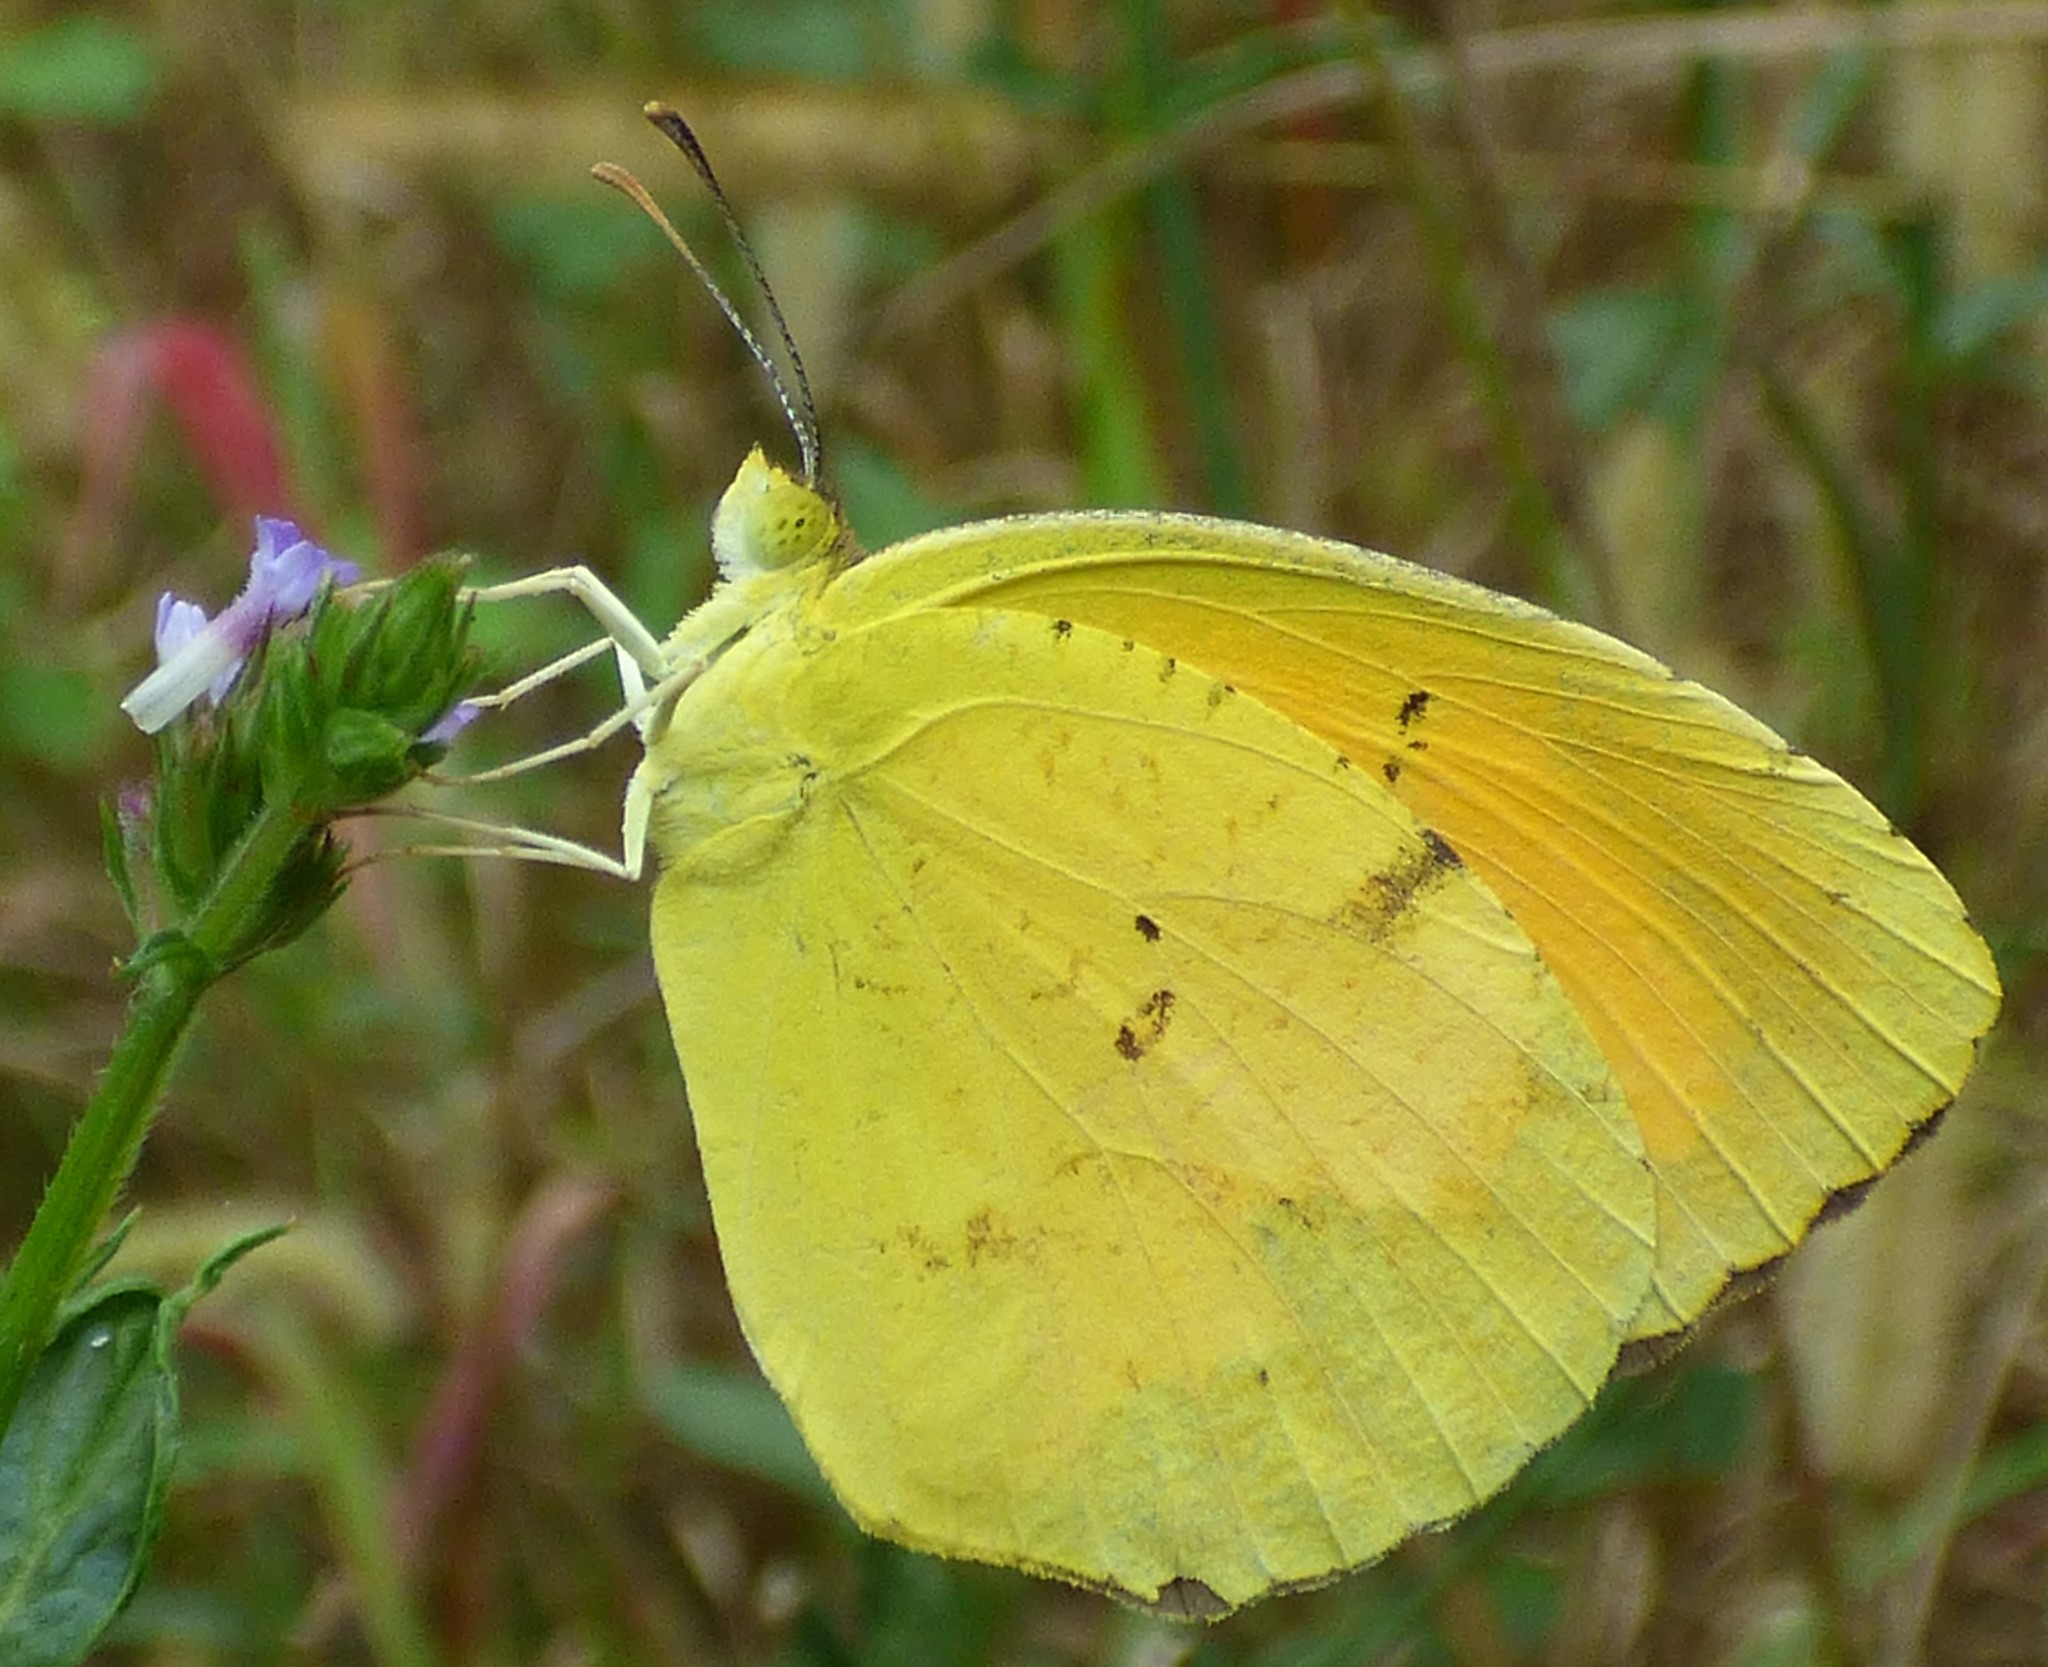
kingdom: Animalia
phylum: Arthropoda
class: Insecta
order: Lepidoptera
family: Pieridae
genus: Abaeis
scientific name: Abaeis nicippe
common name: Sleepy orange
